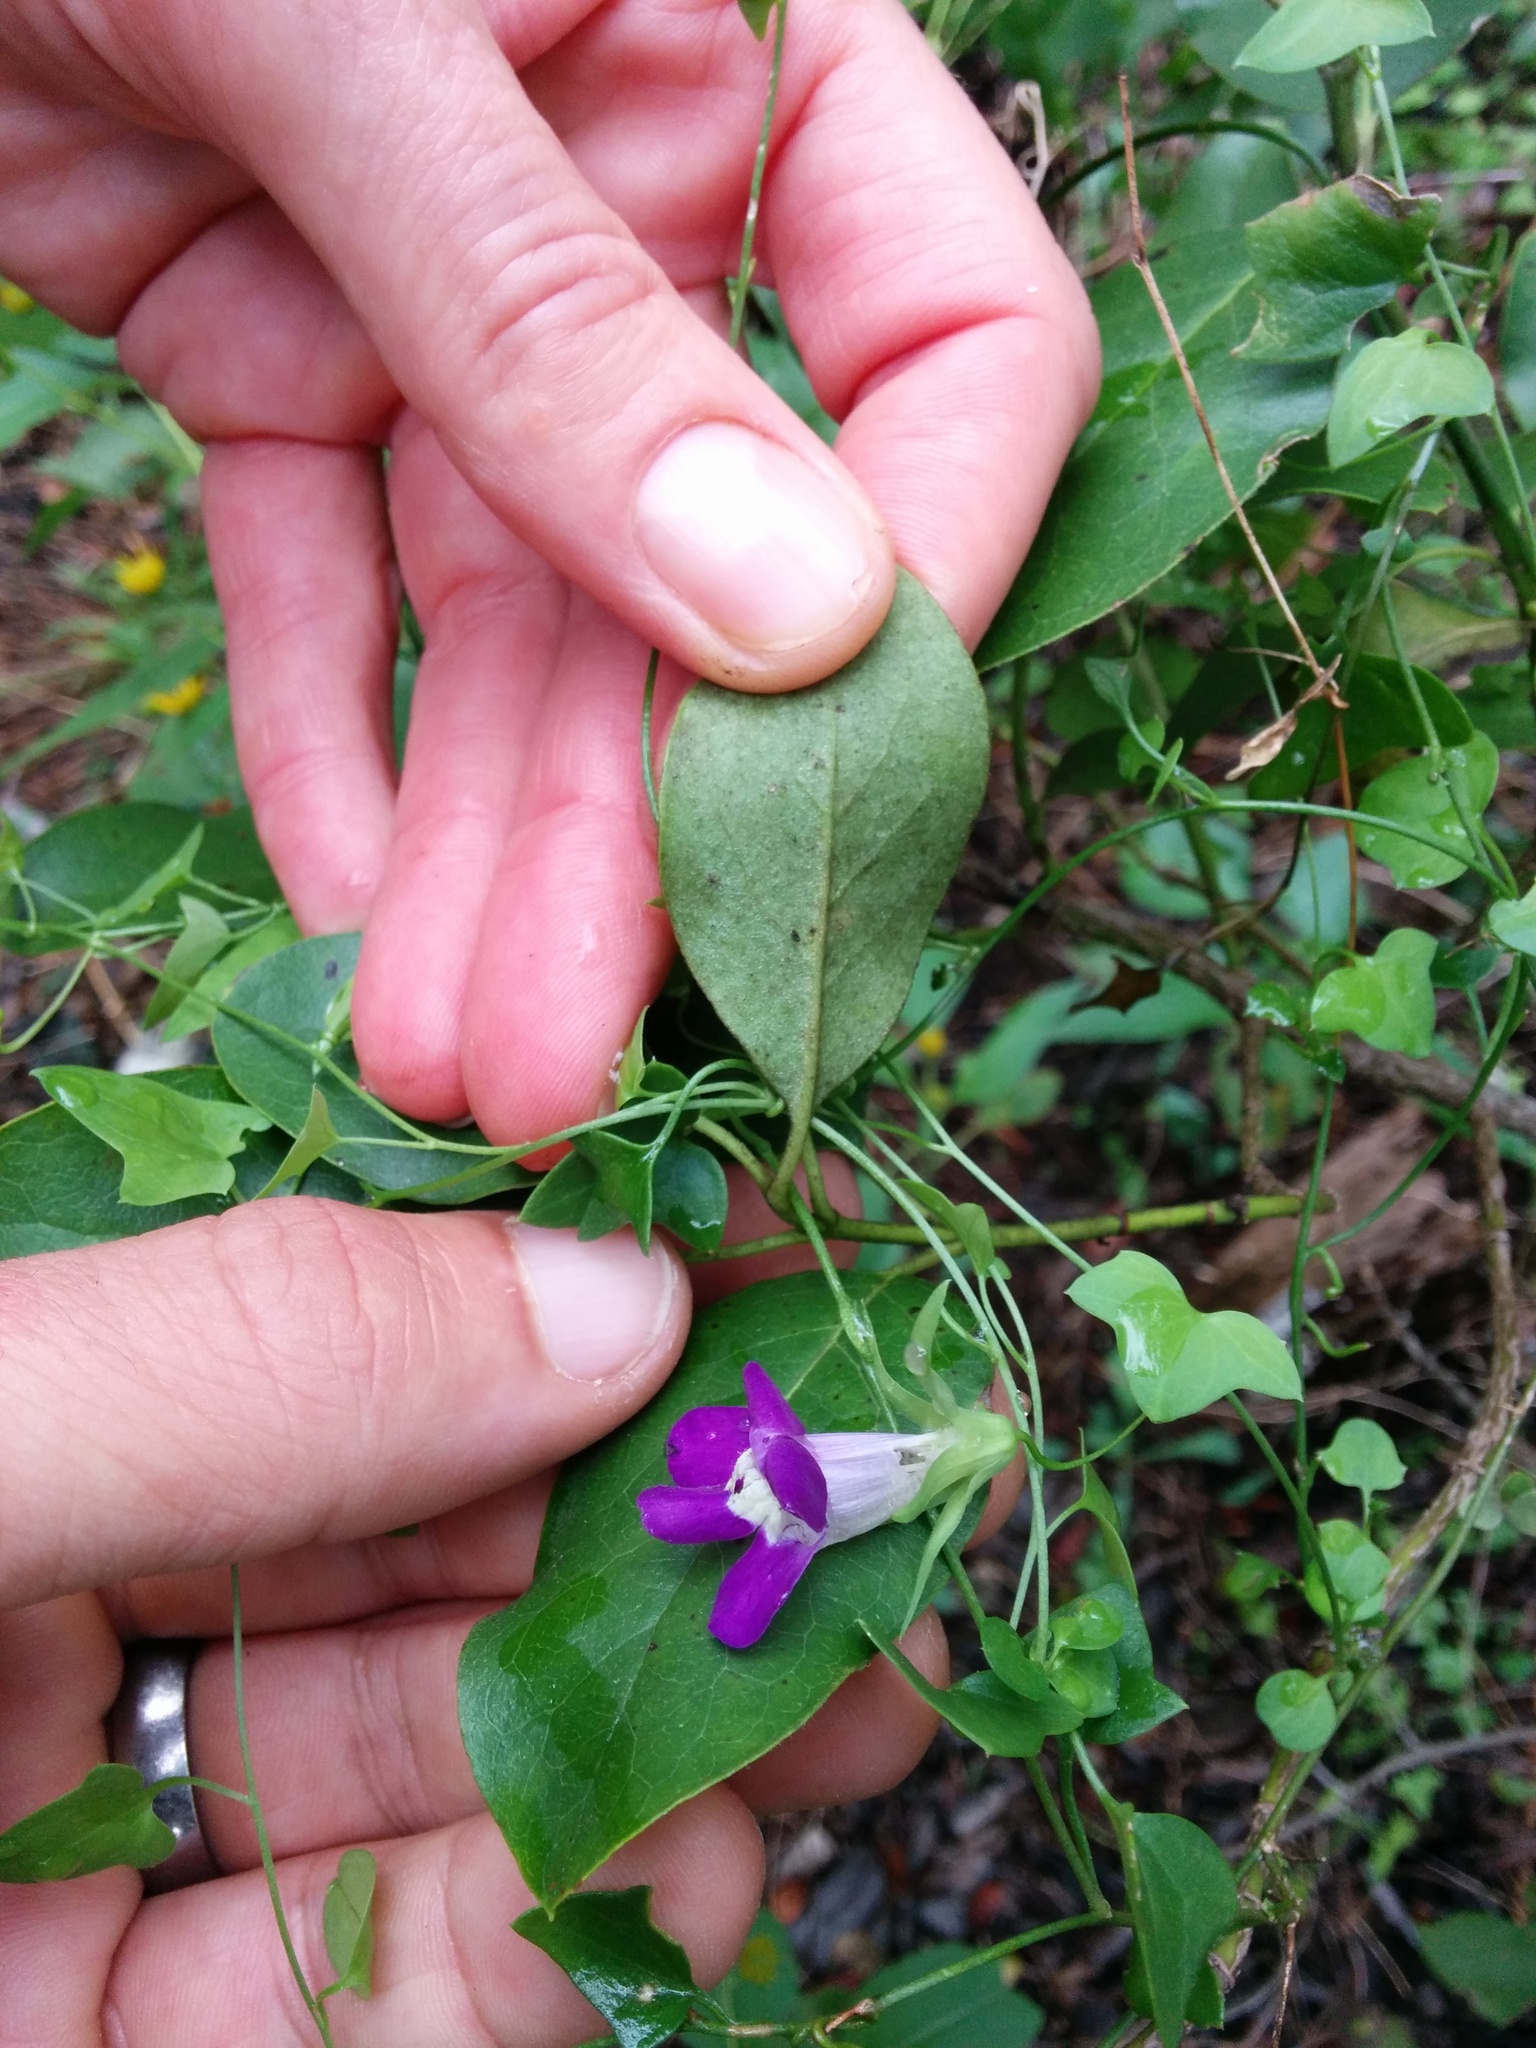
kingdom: Plantae
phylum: Tracheophyta
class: Magnoliopsida
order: Lamiales
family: Plantaginaceae
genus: Maurandella
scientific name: Maurandella antirrhiniflora
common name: Violet twining-snapdragon
